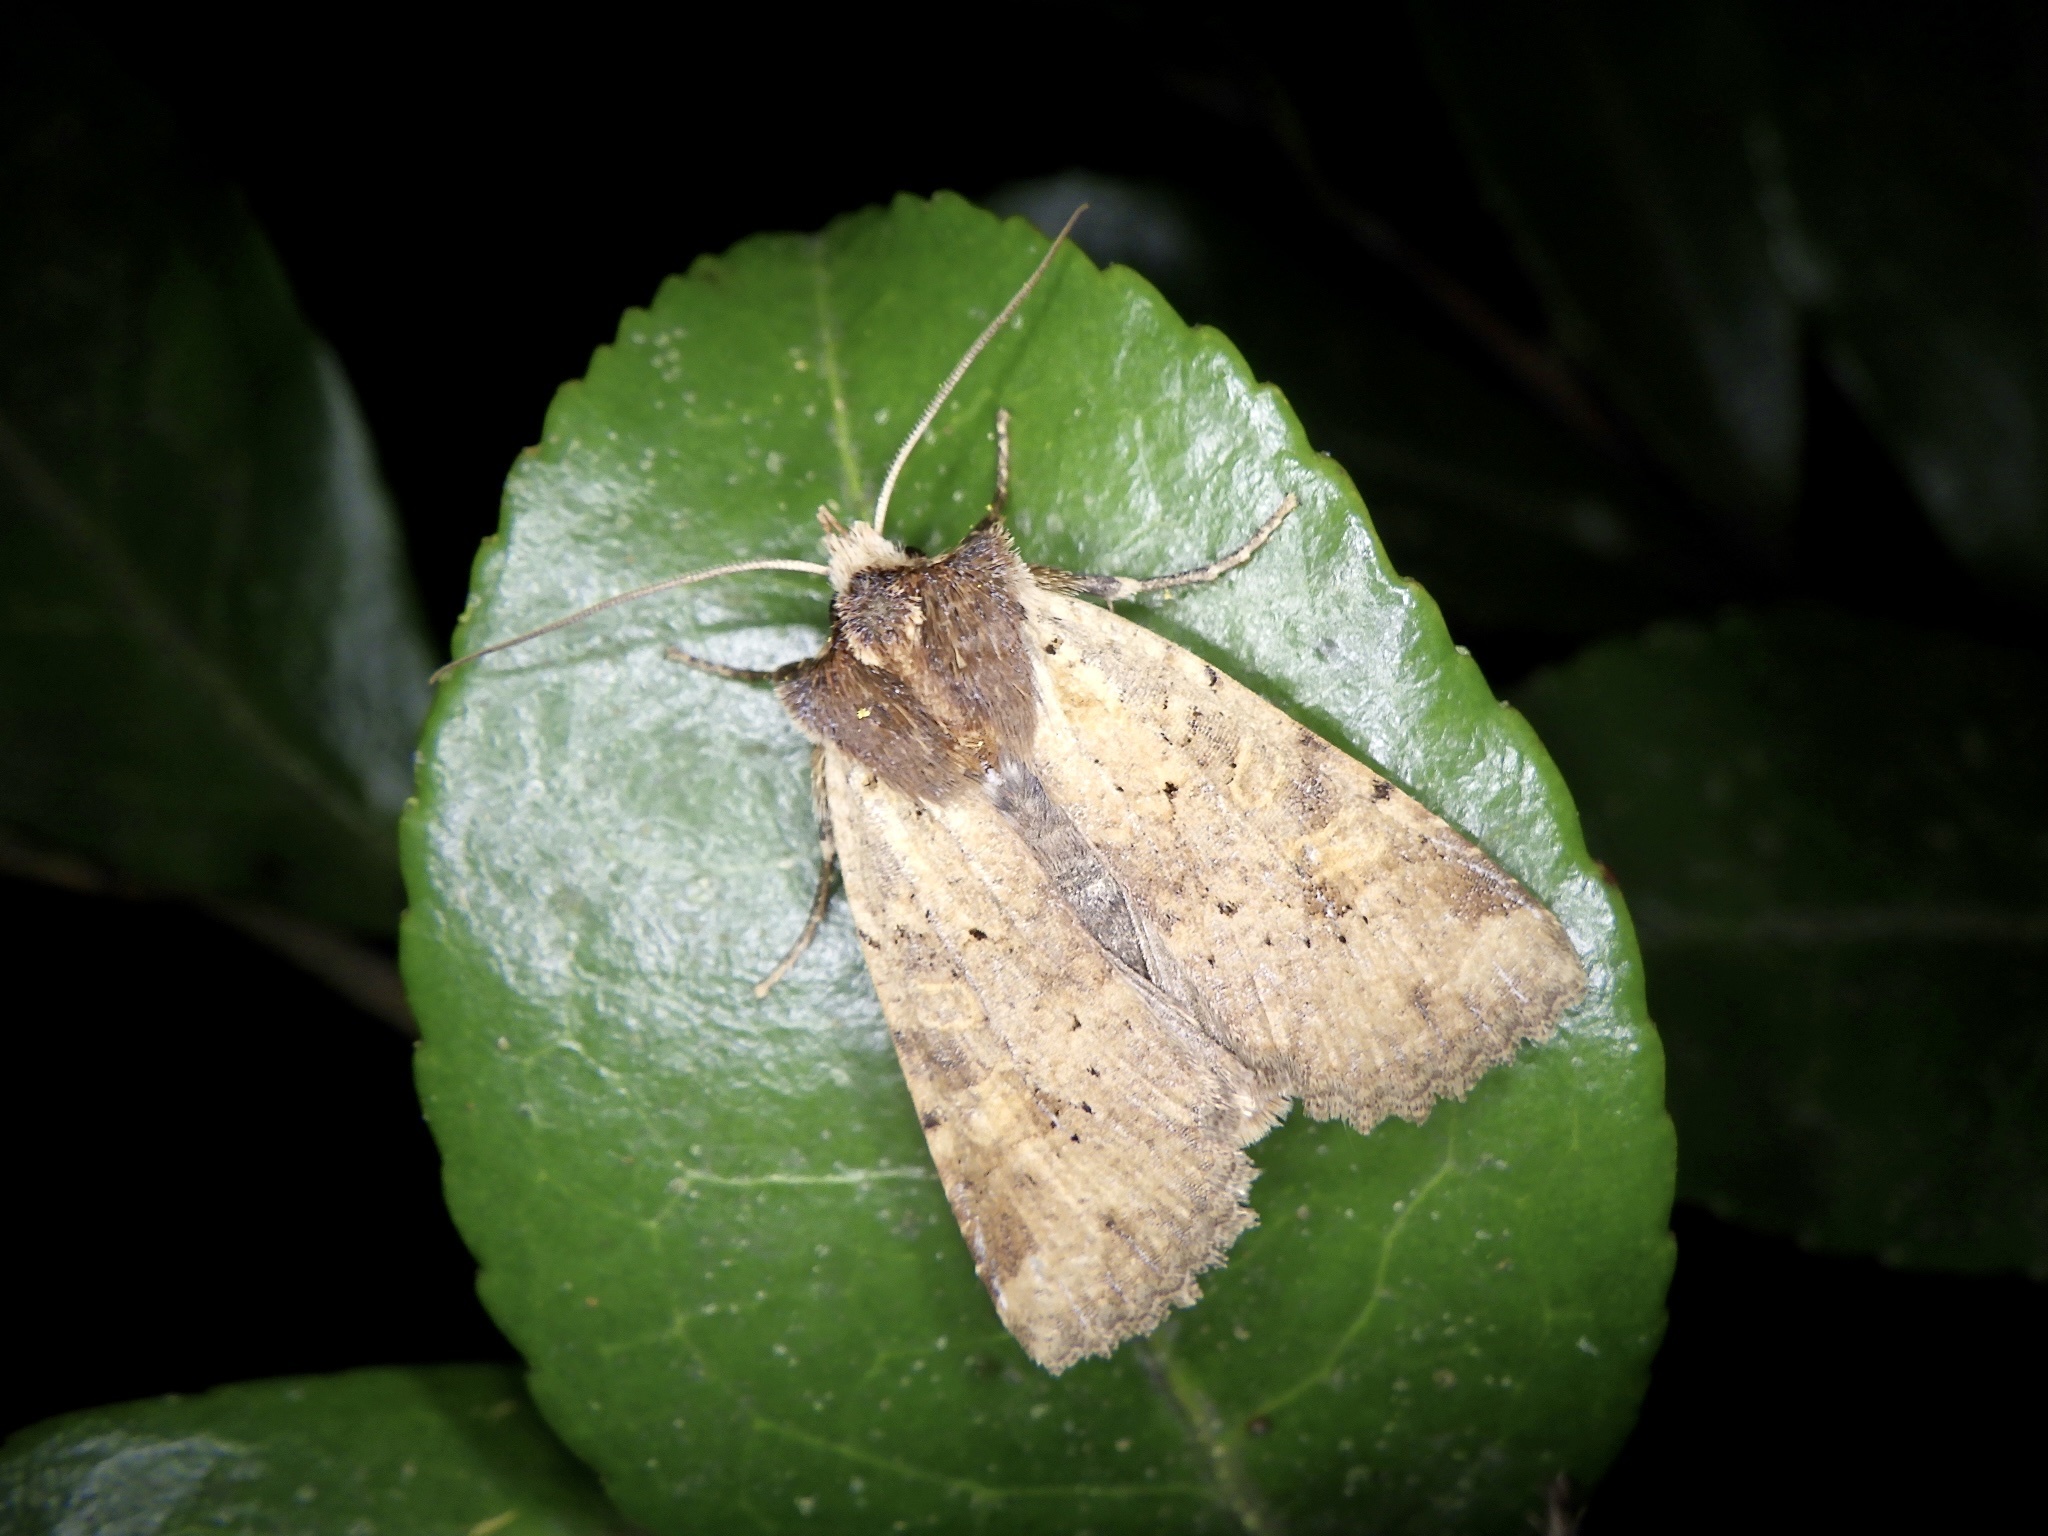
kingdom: Animalia
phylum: Arthropoda
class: Insecta
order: Lepidoptera
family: Noctuidae
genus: Rhynchaglaea
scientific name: Rhynchaglaea scitula
